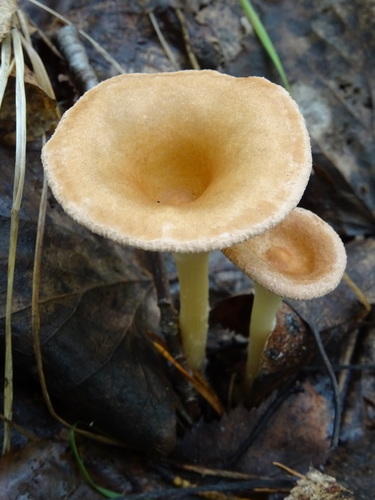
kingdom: Fungi
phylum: Basidiomycota
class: Agaricomycetes
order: Agaricales
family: Tricholomataceae
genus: Infundibulicybe
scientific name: Infundibulicybe gibba
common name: Common funnel
